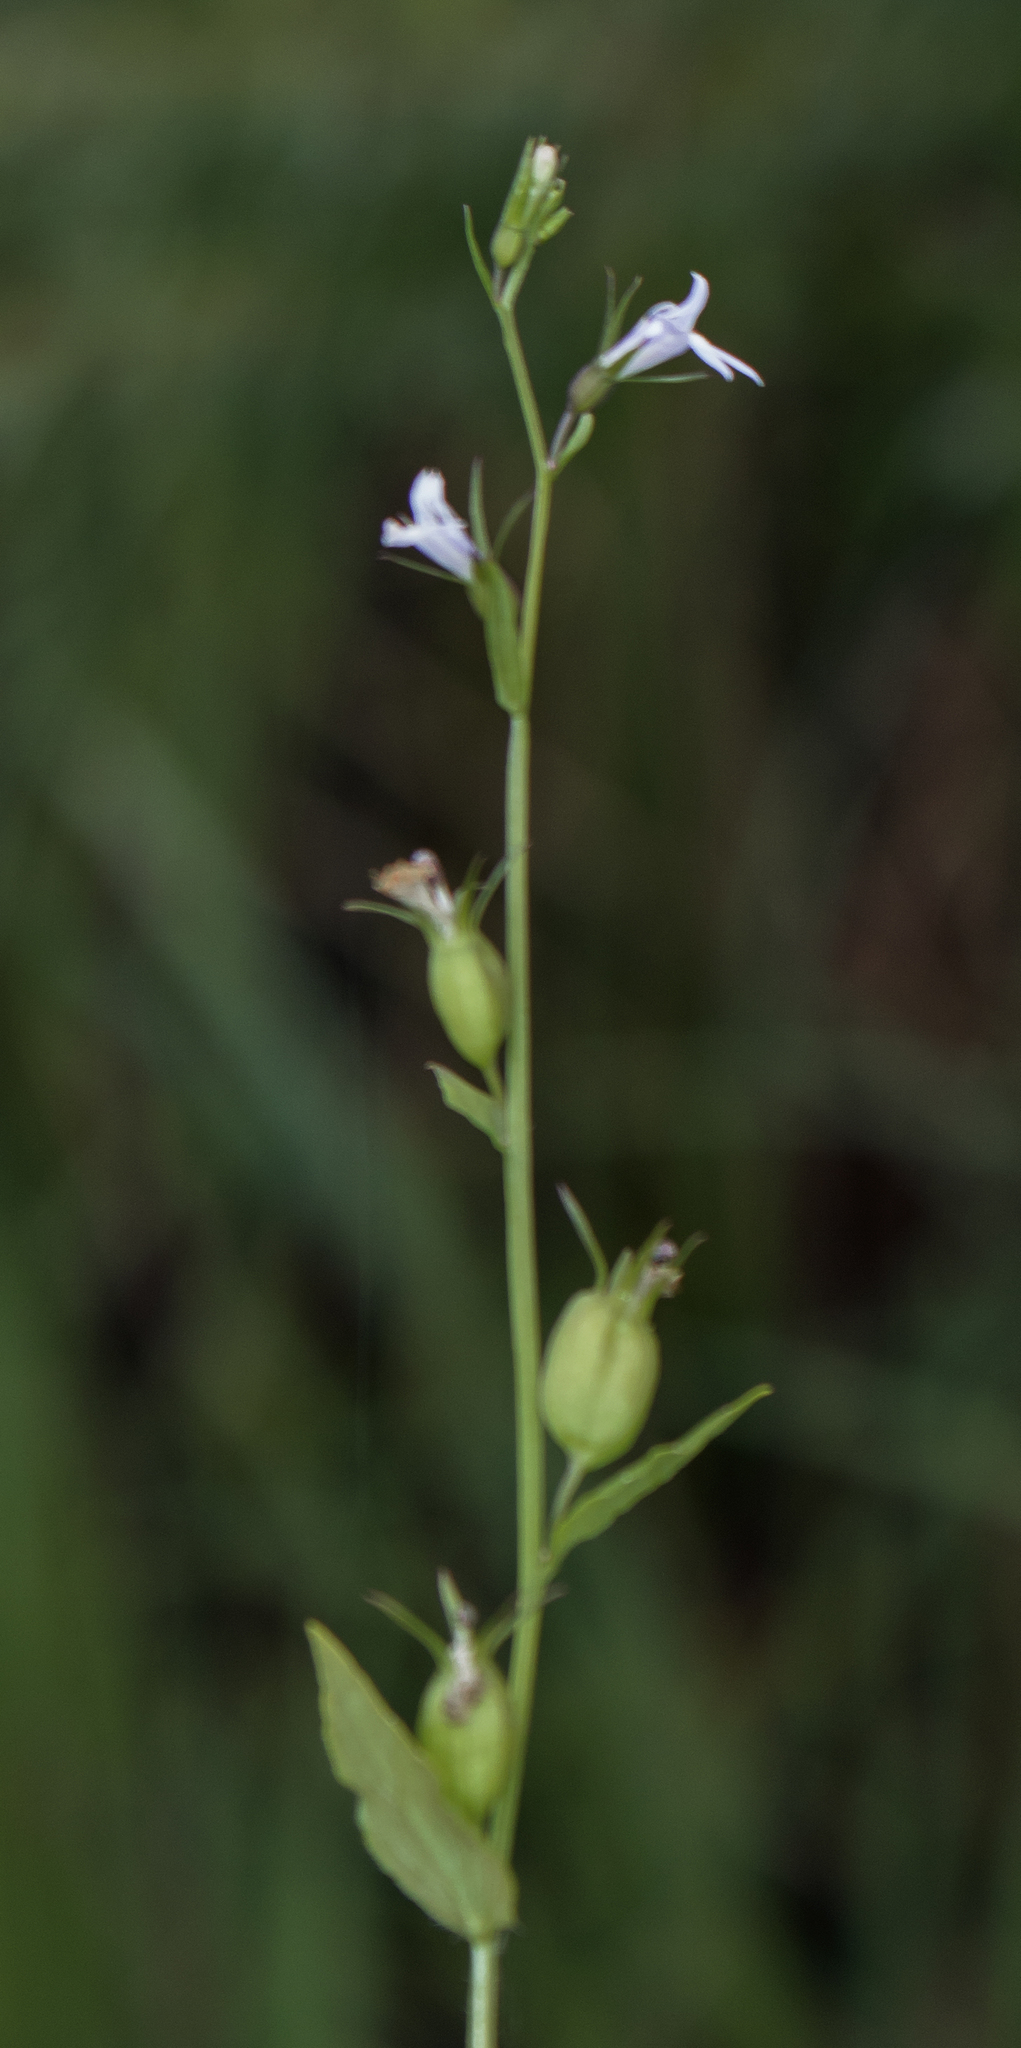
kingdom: Plantae
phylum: Tracheophyta
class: Magnoliopsida
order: Asterales
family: Campanulaceae
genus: Lobelia
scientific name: Lobelia inflata
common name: Indian tobacco
